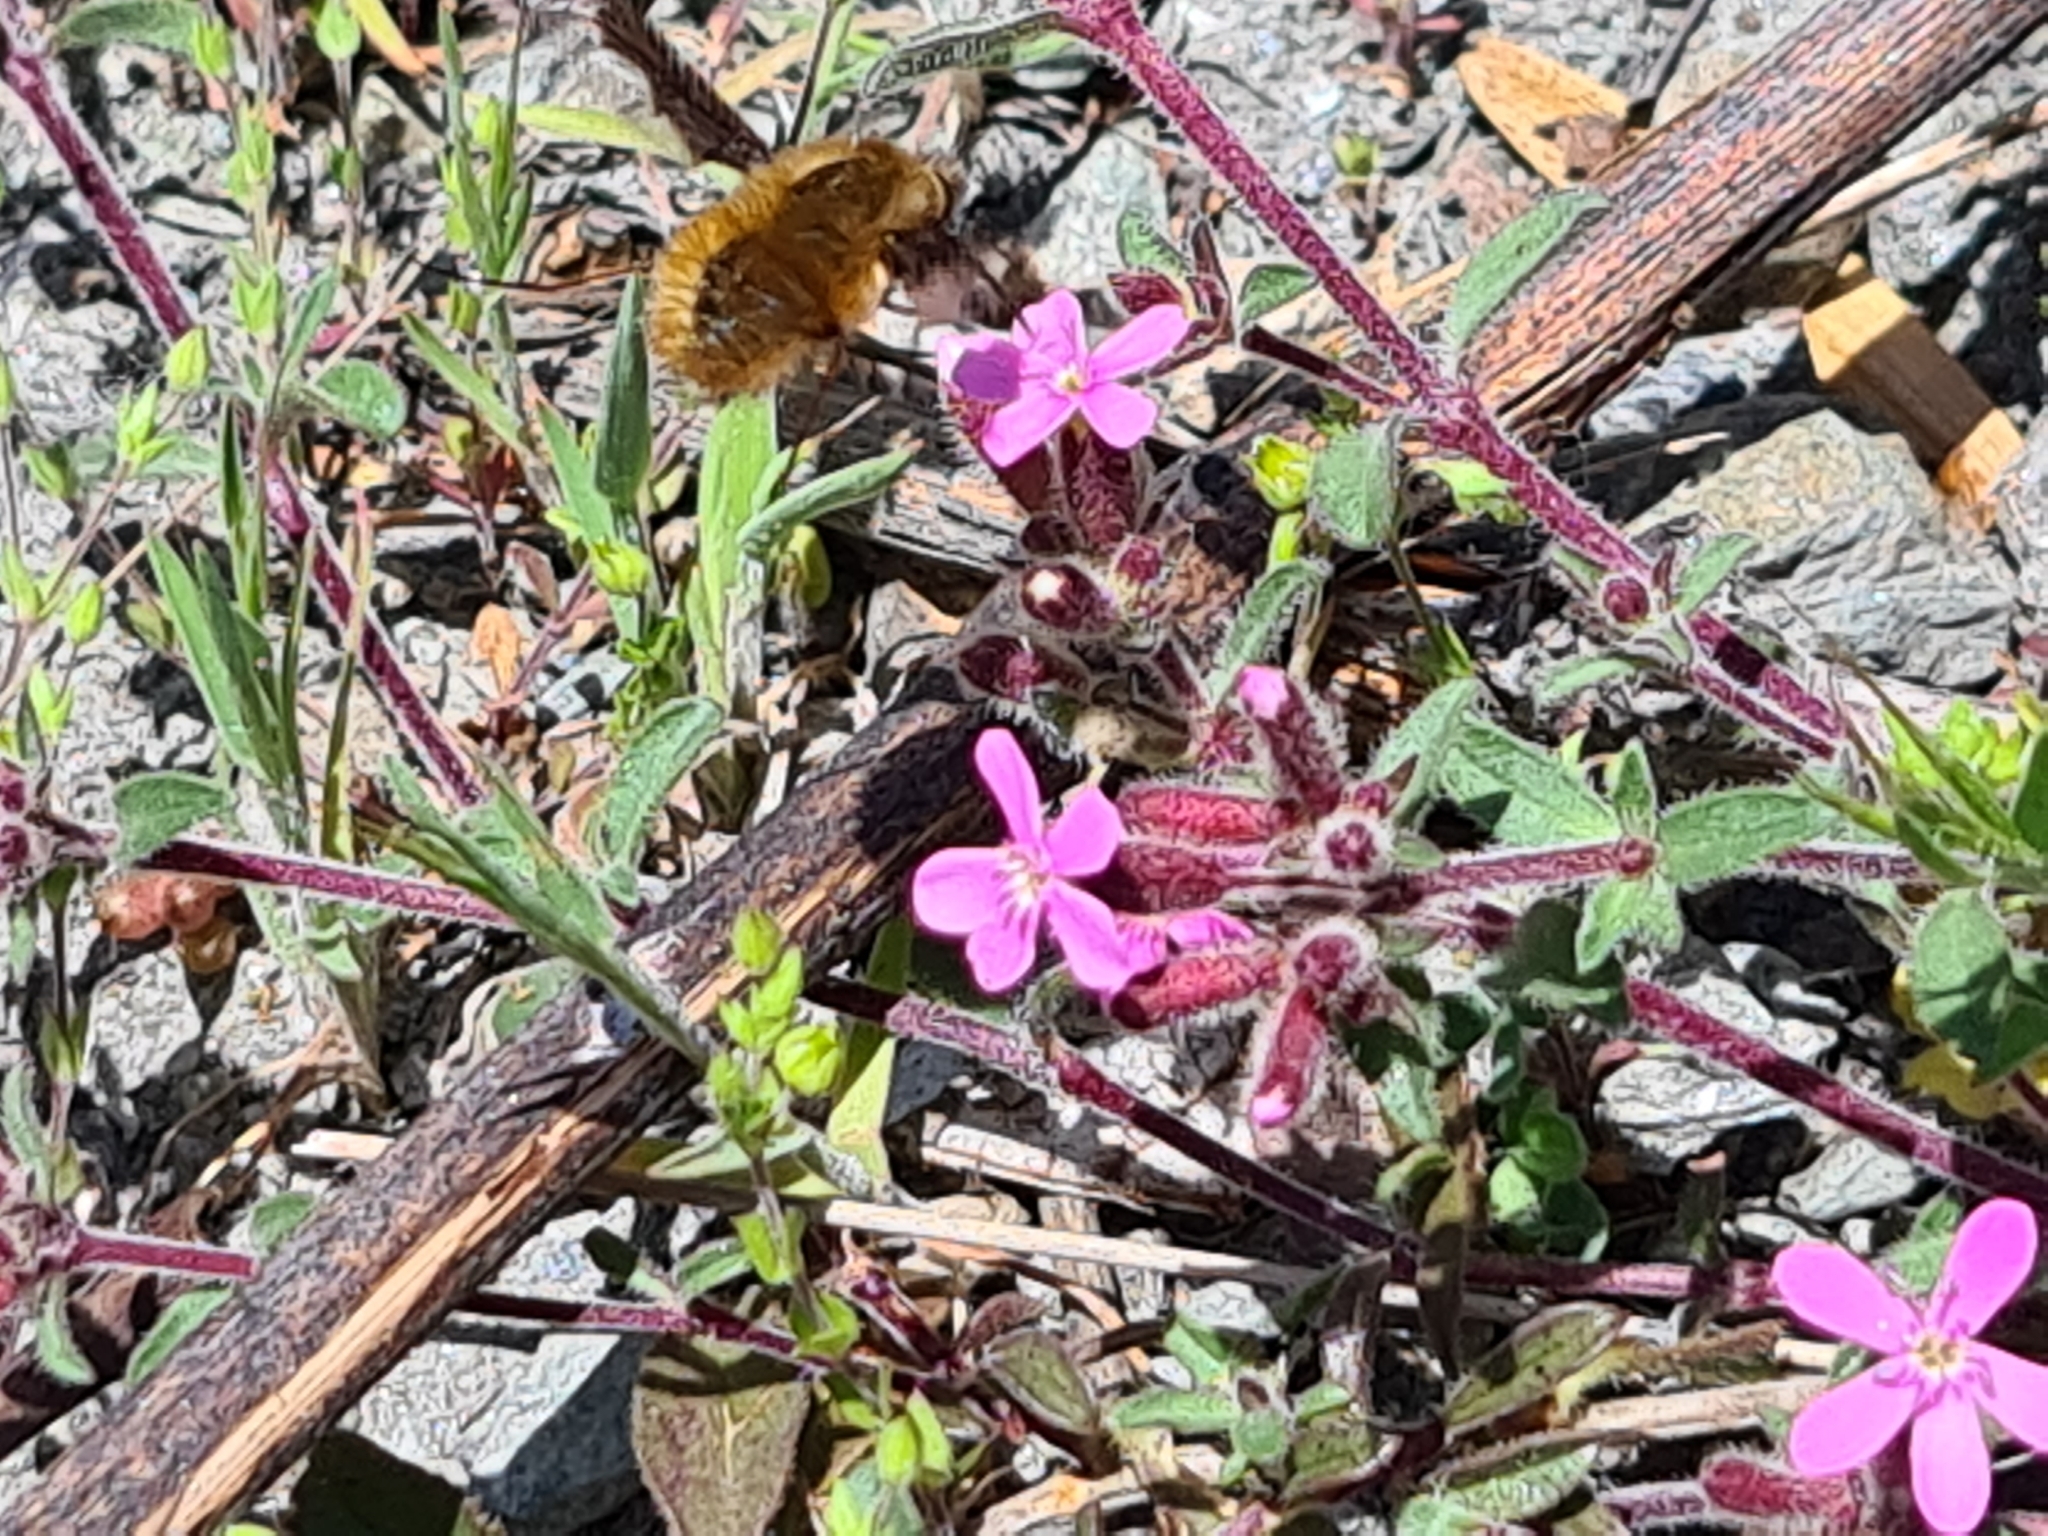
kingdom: Animalia
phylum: Arthropoda
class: Insecta
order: Diptera
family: Bombyliidae
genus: Bombylius
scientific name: Bombylius major
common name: Bee fly
